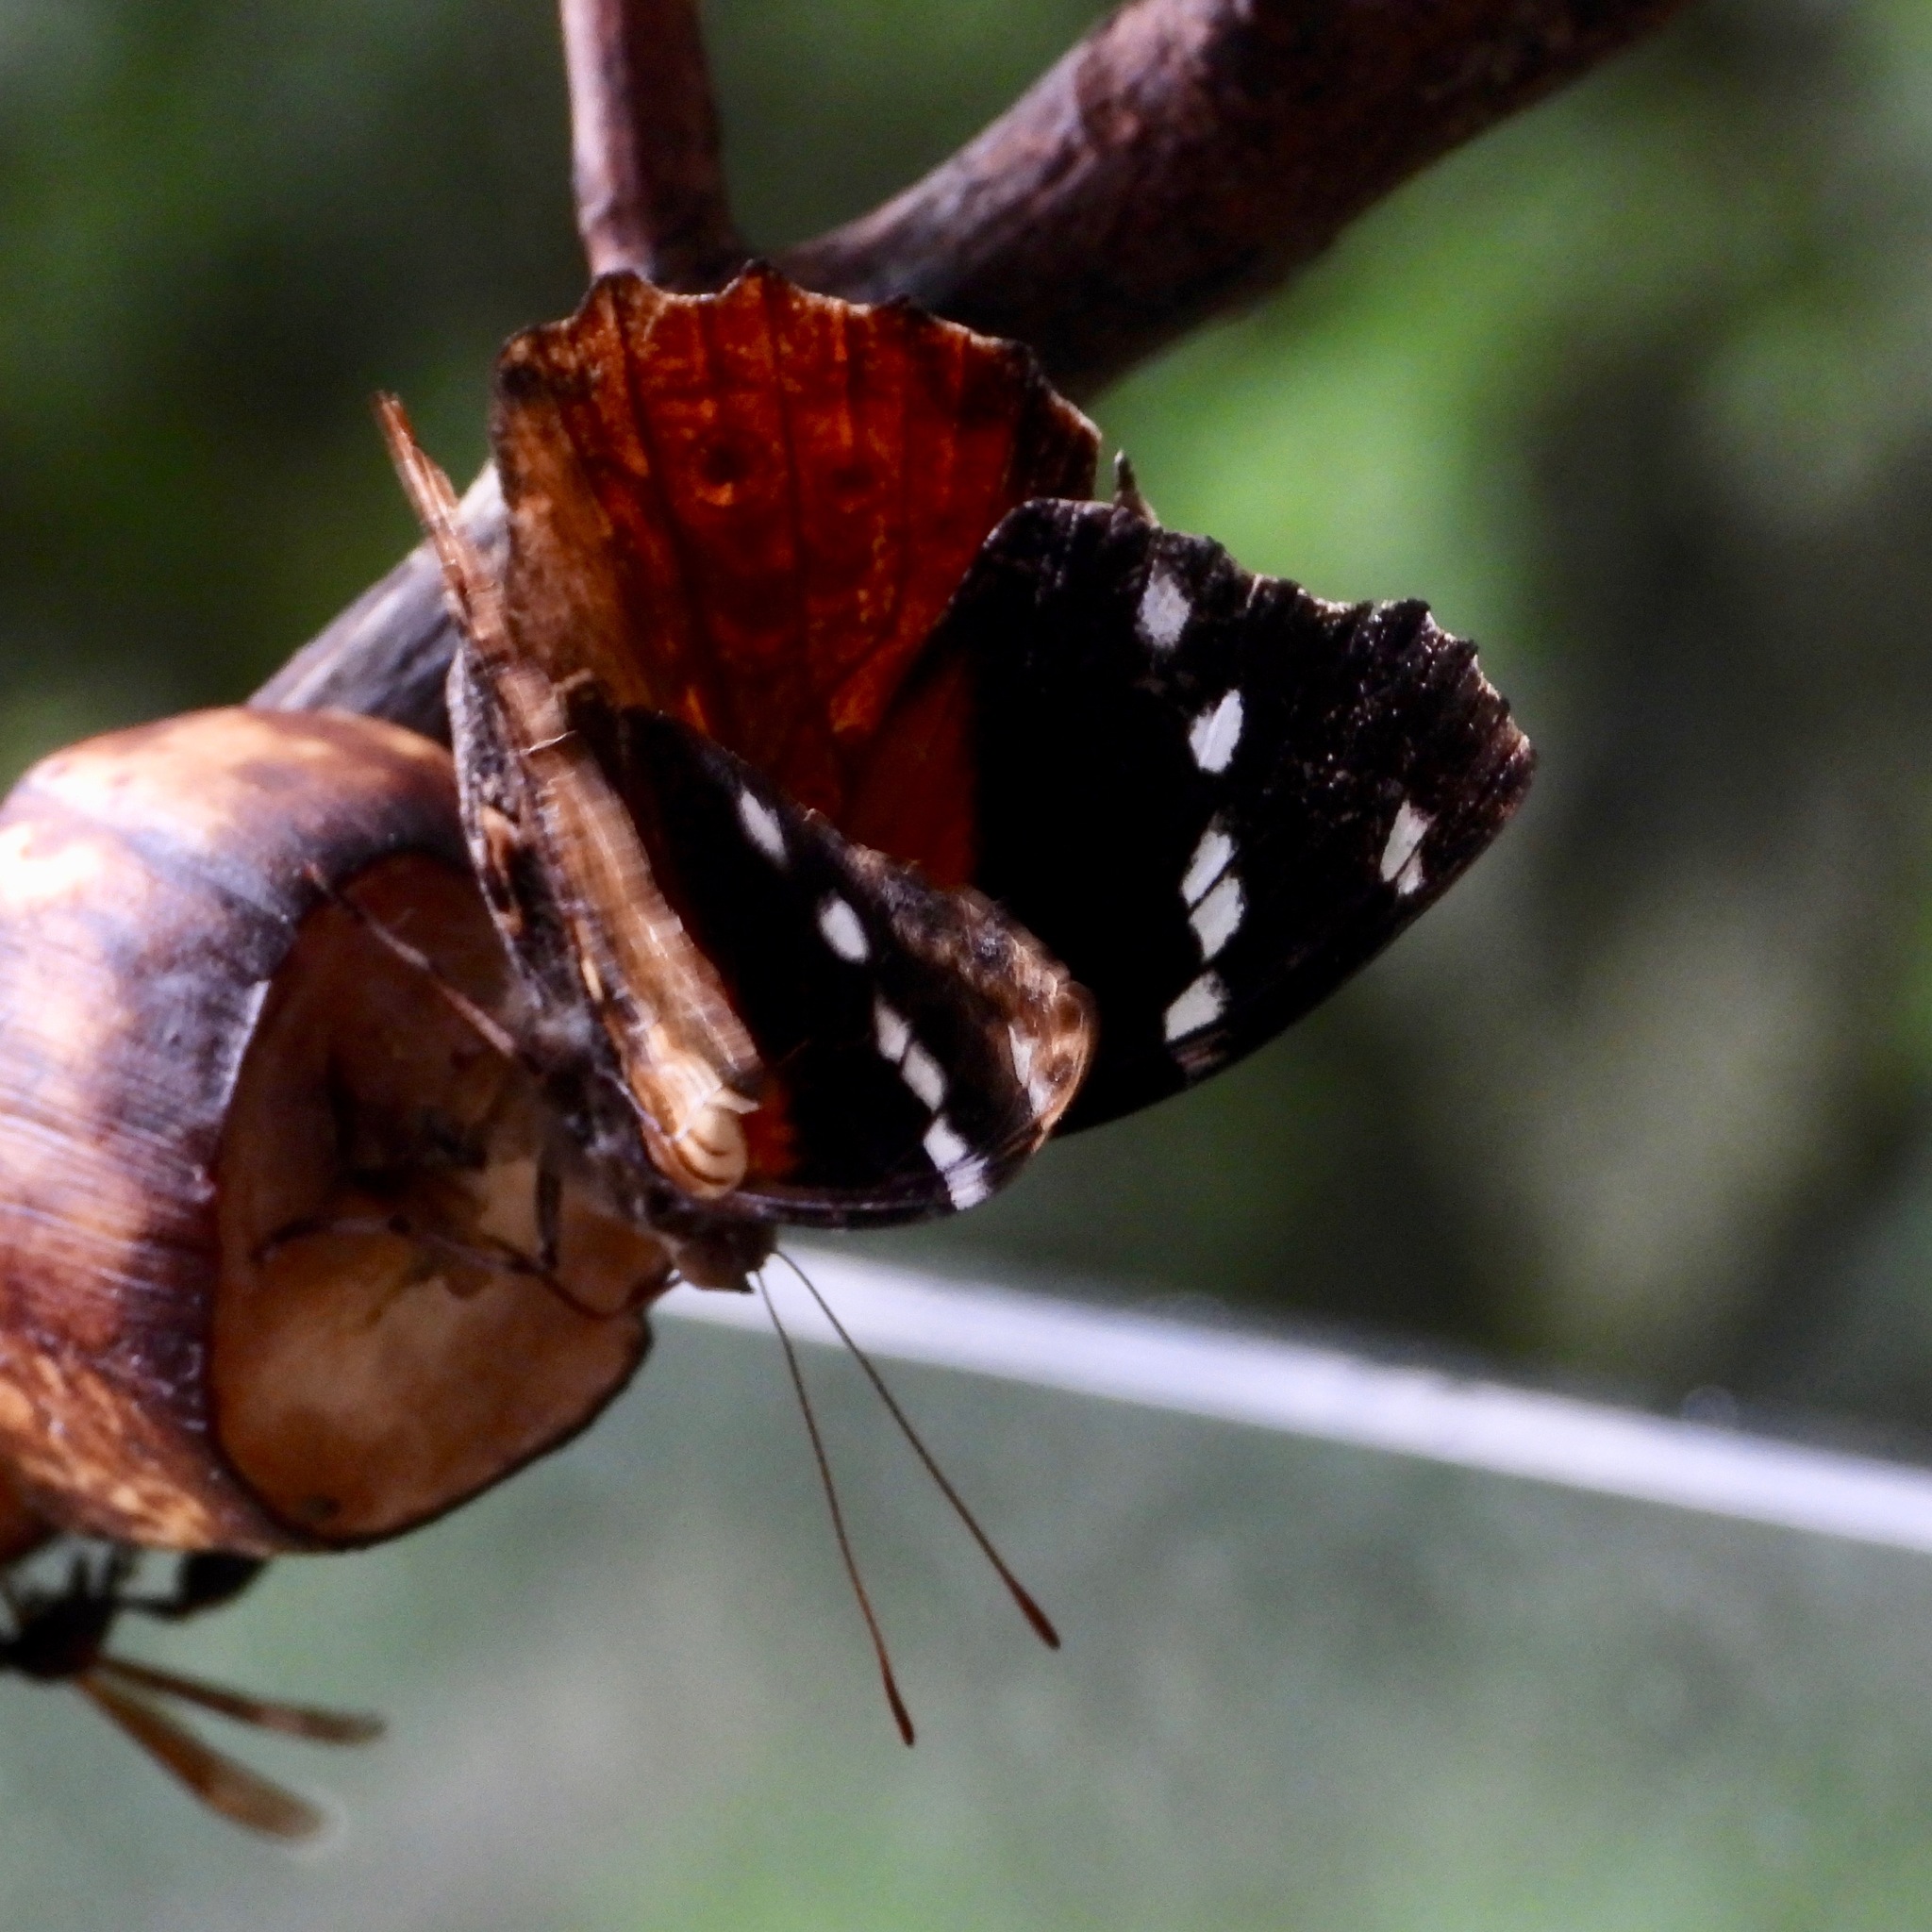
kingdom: Animalia
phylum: Arthropoda
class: Insecta
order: Lepidoptera
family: Nymphalidae
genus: Pycina
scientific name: Pycina zamba
